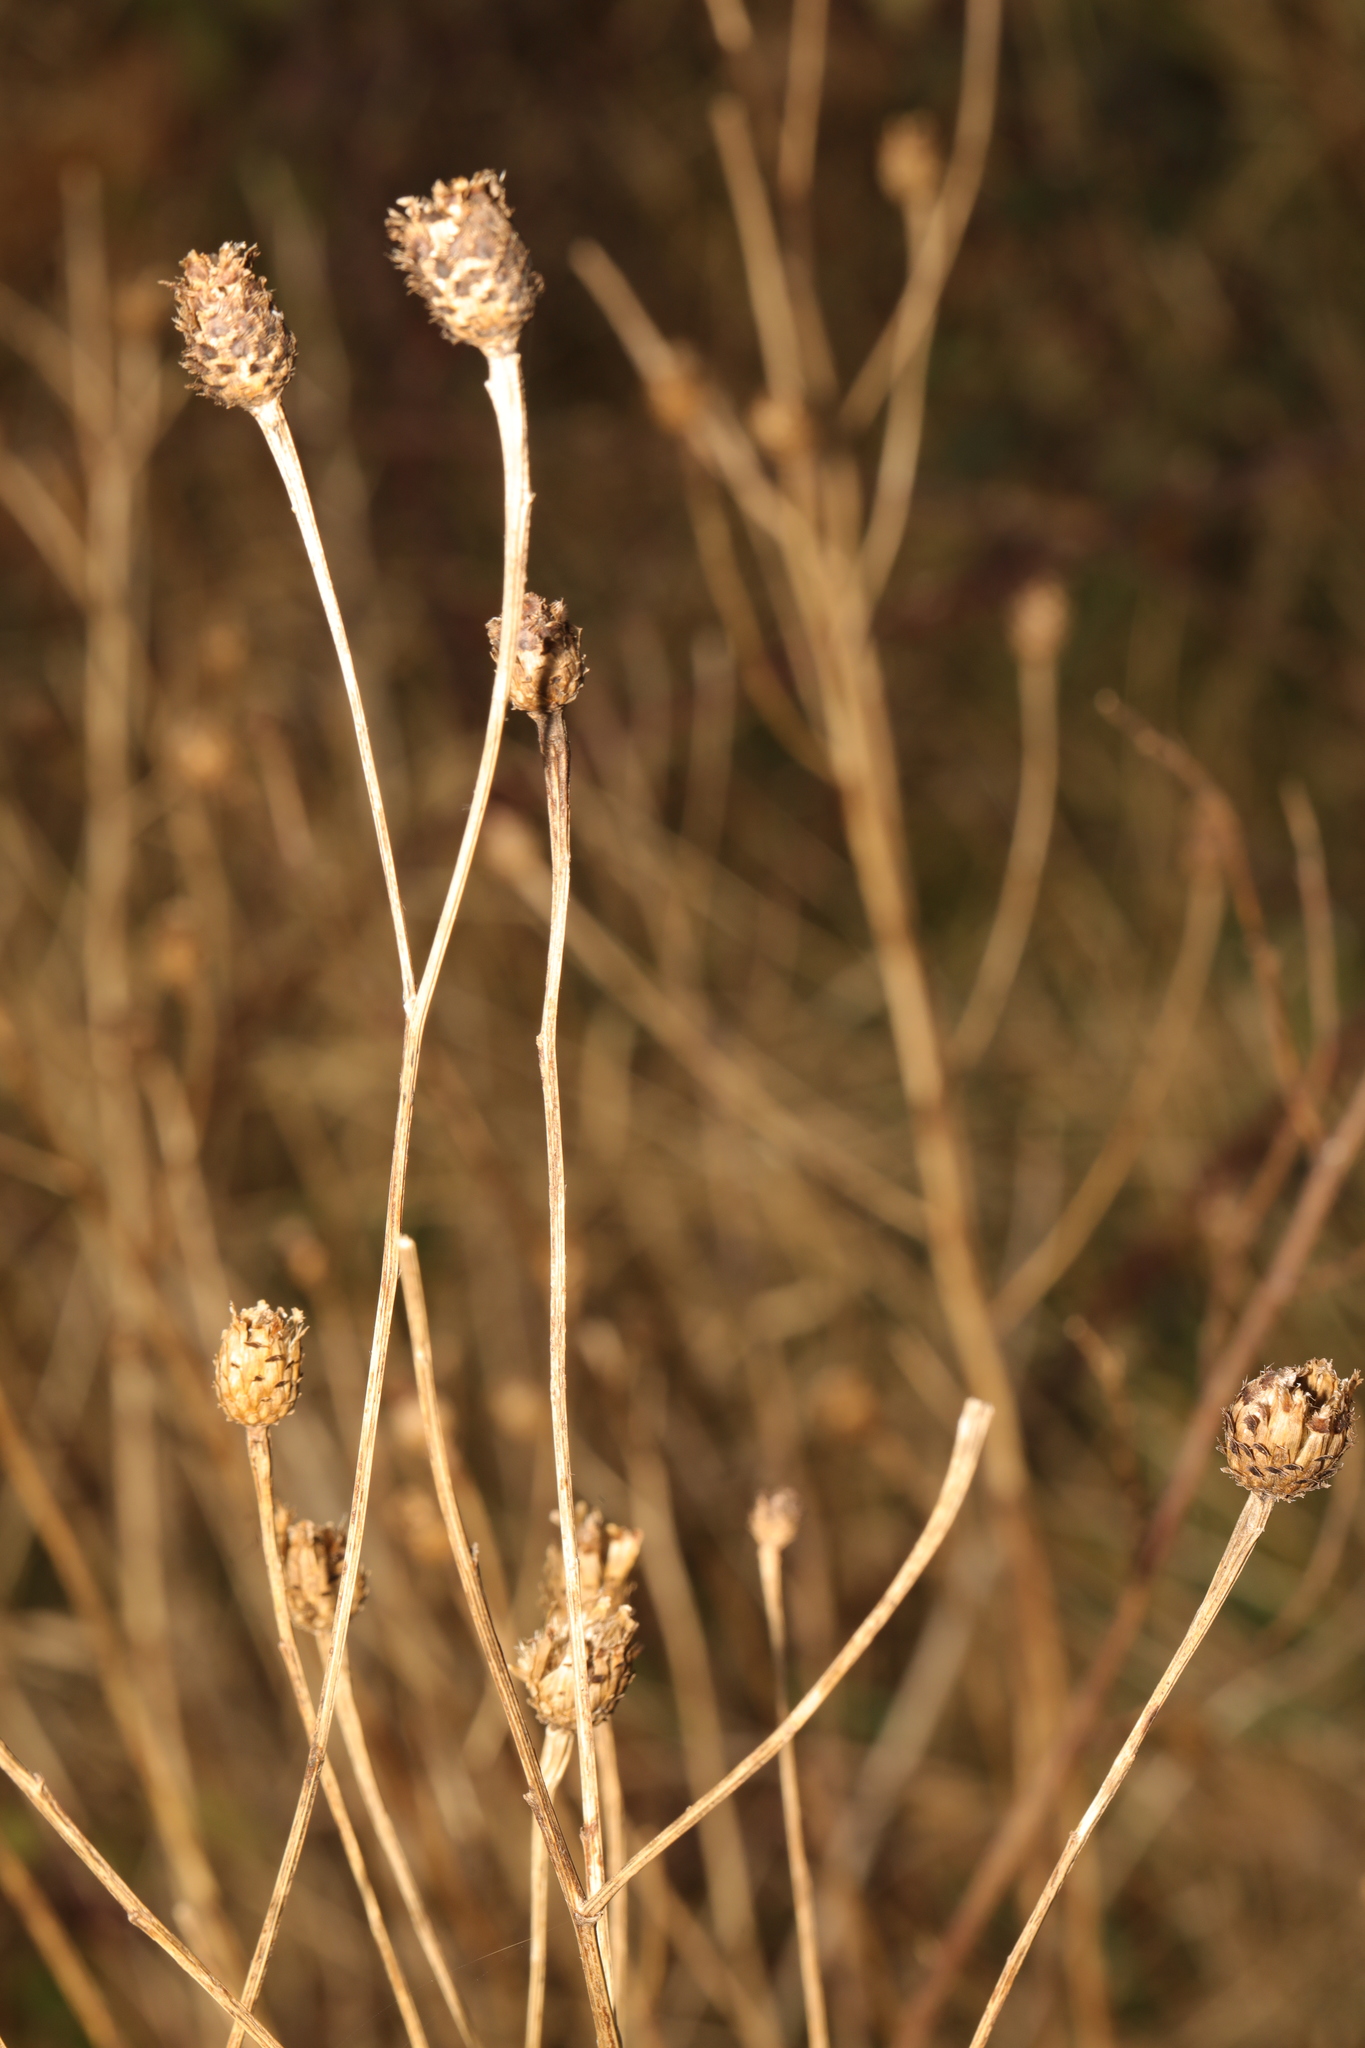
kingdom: Plantae
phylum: Tracheophyta
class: Magnoliopsida
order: Asterales
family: Asteraceae
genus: Centaurea
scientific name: Centaurea nigra
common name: Lesser knapweed
